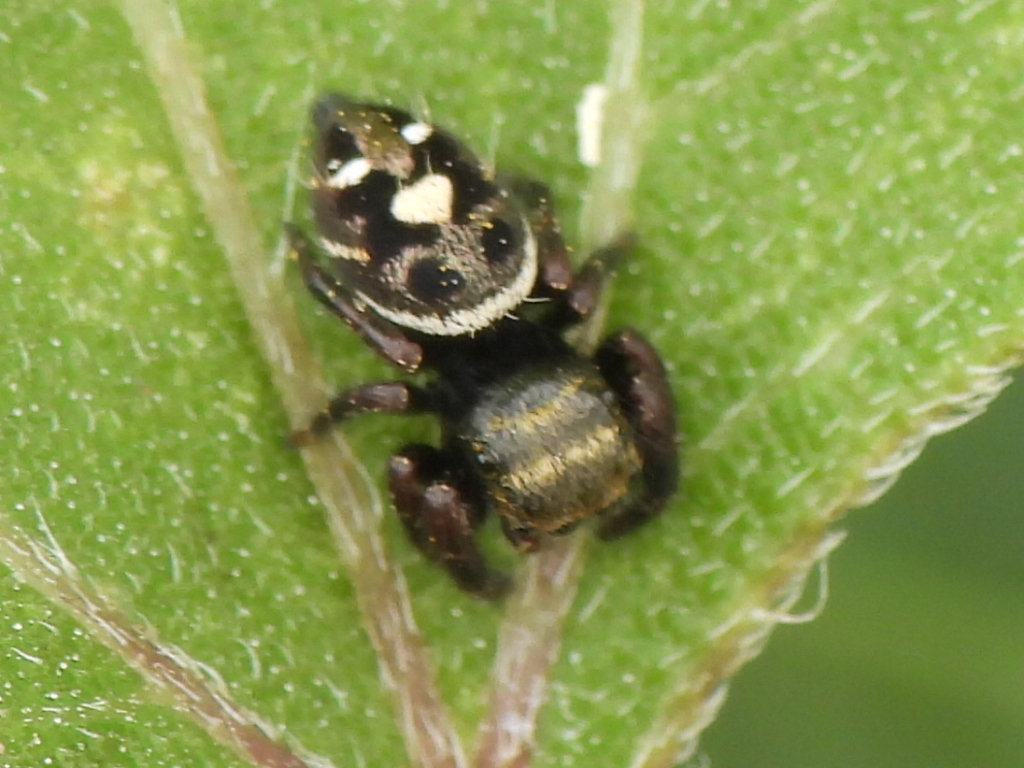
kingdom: Animalia
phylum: Arthropoda
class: Arachnida
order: Araneae
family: Salticidae
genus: Phidippus
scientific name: Phidippus audax
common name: Bold jumper
